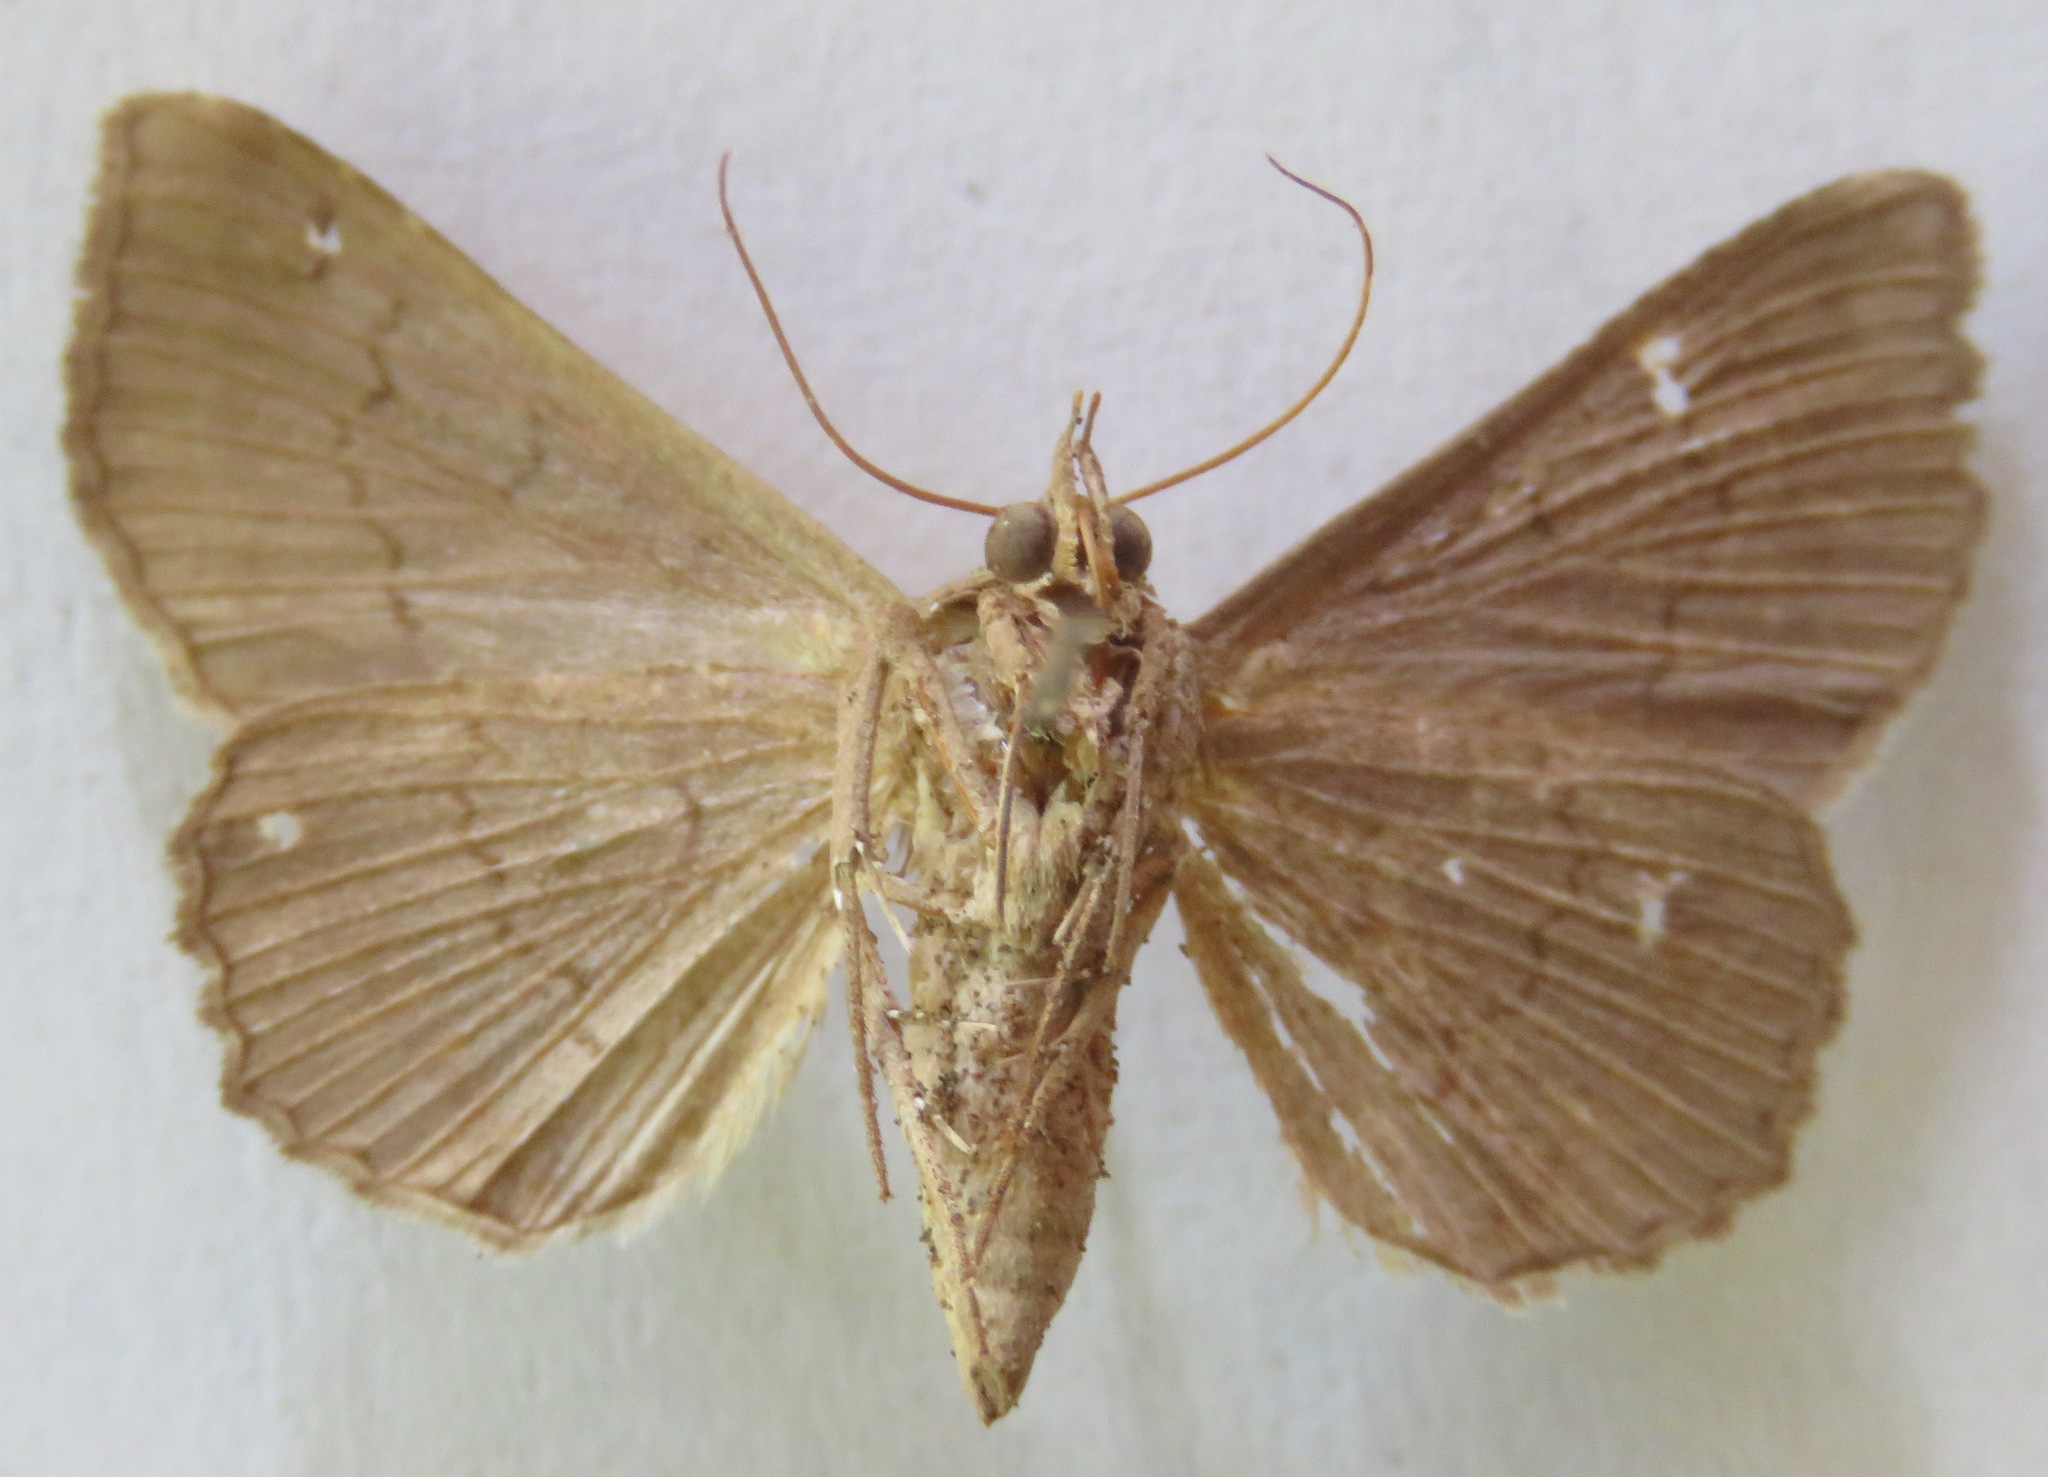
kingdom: Animalia
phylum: Arthropoda
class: Insecta
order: Lepidoptera
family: Erebidae
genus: Lesmone
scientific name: Lesmone formularis
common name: Lesmone moth
